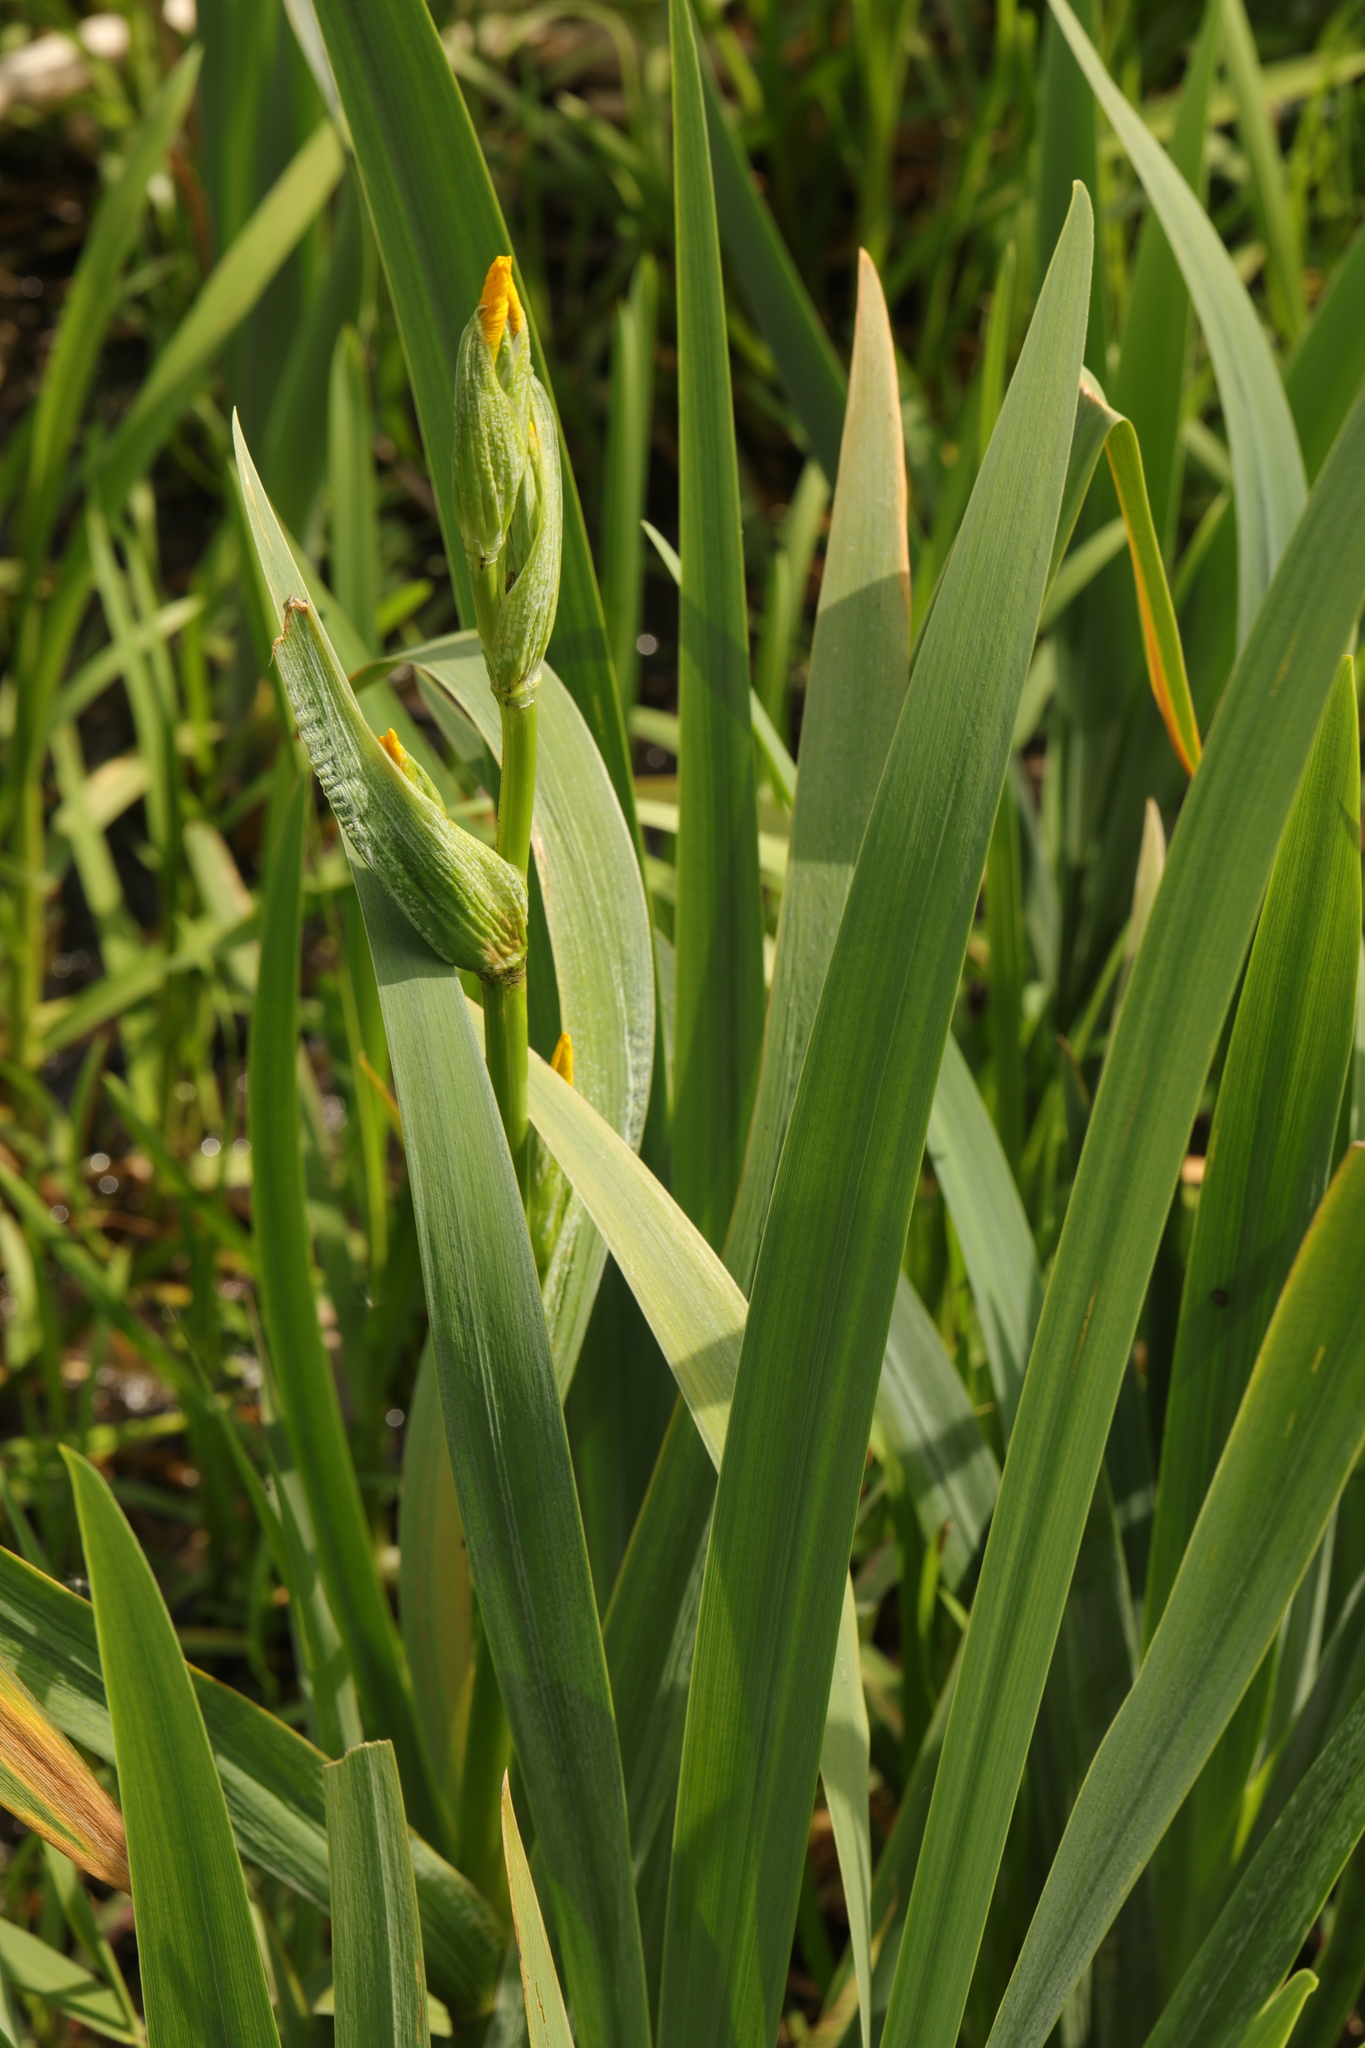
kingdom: Plantae
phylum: Tracheophyta
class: Liliopsida
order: Asparagales
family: Iridaceae
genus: Iris
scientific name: Iris pseudacorus
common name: Yellow flag
